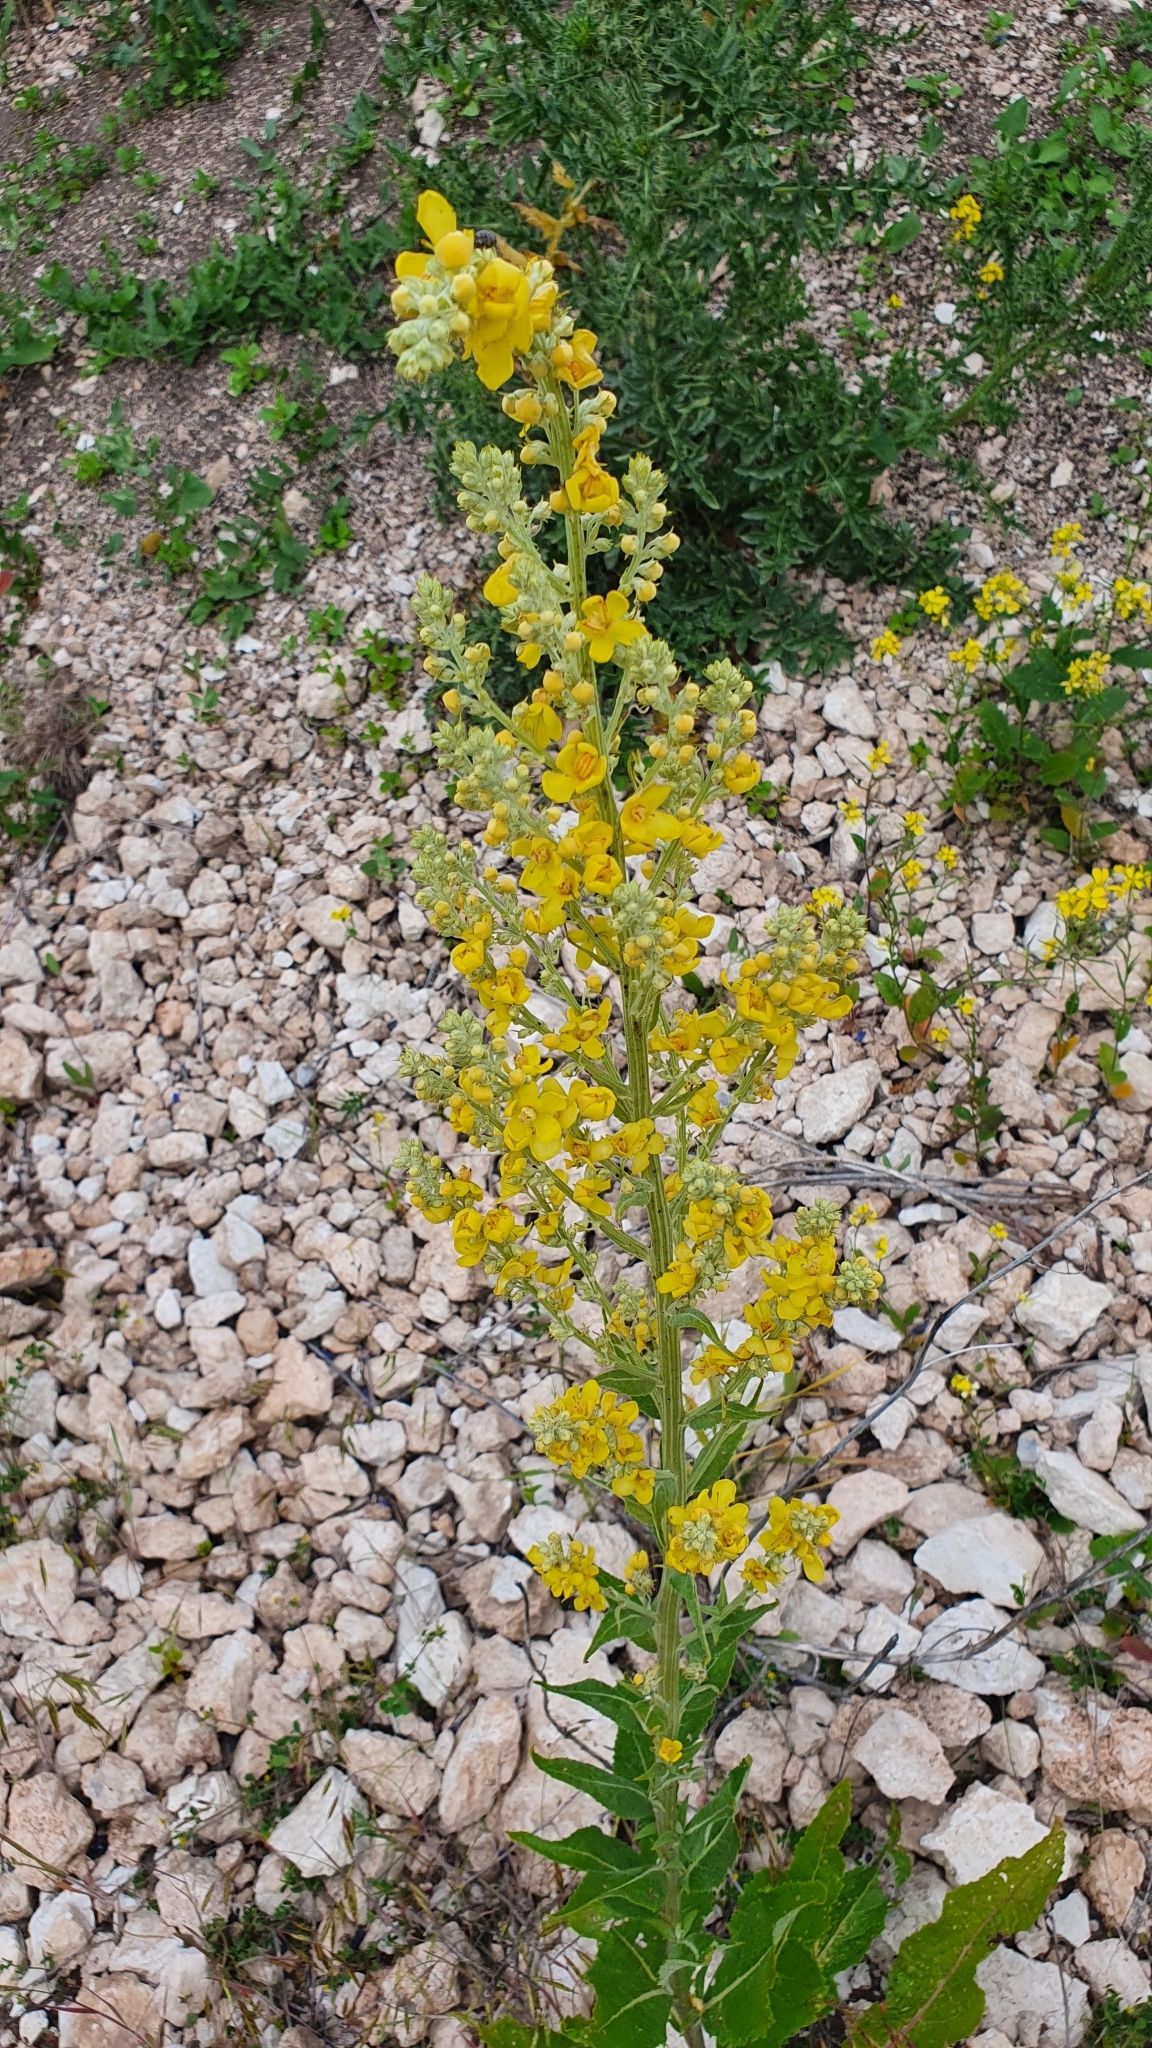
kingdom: Plantae
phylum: Tracheophyta
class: Magnoliopsida
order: Lamiales
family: Scrophulariaceae
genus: Verbascum
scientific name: Verbascum lychnitis
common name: White mullein
